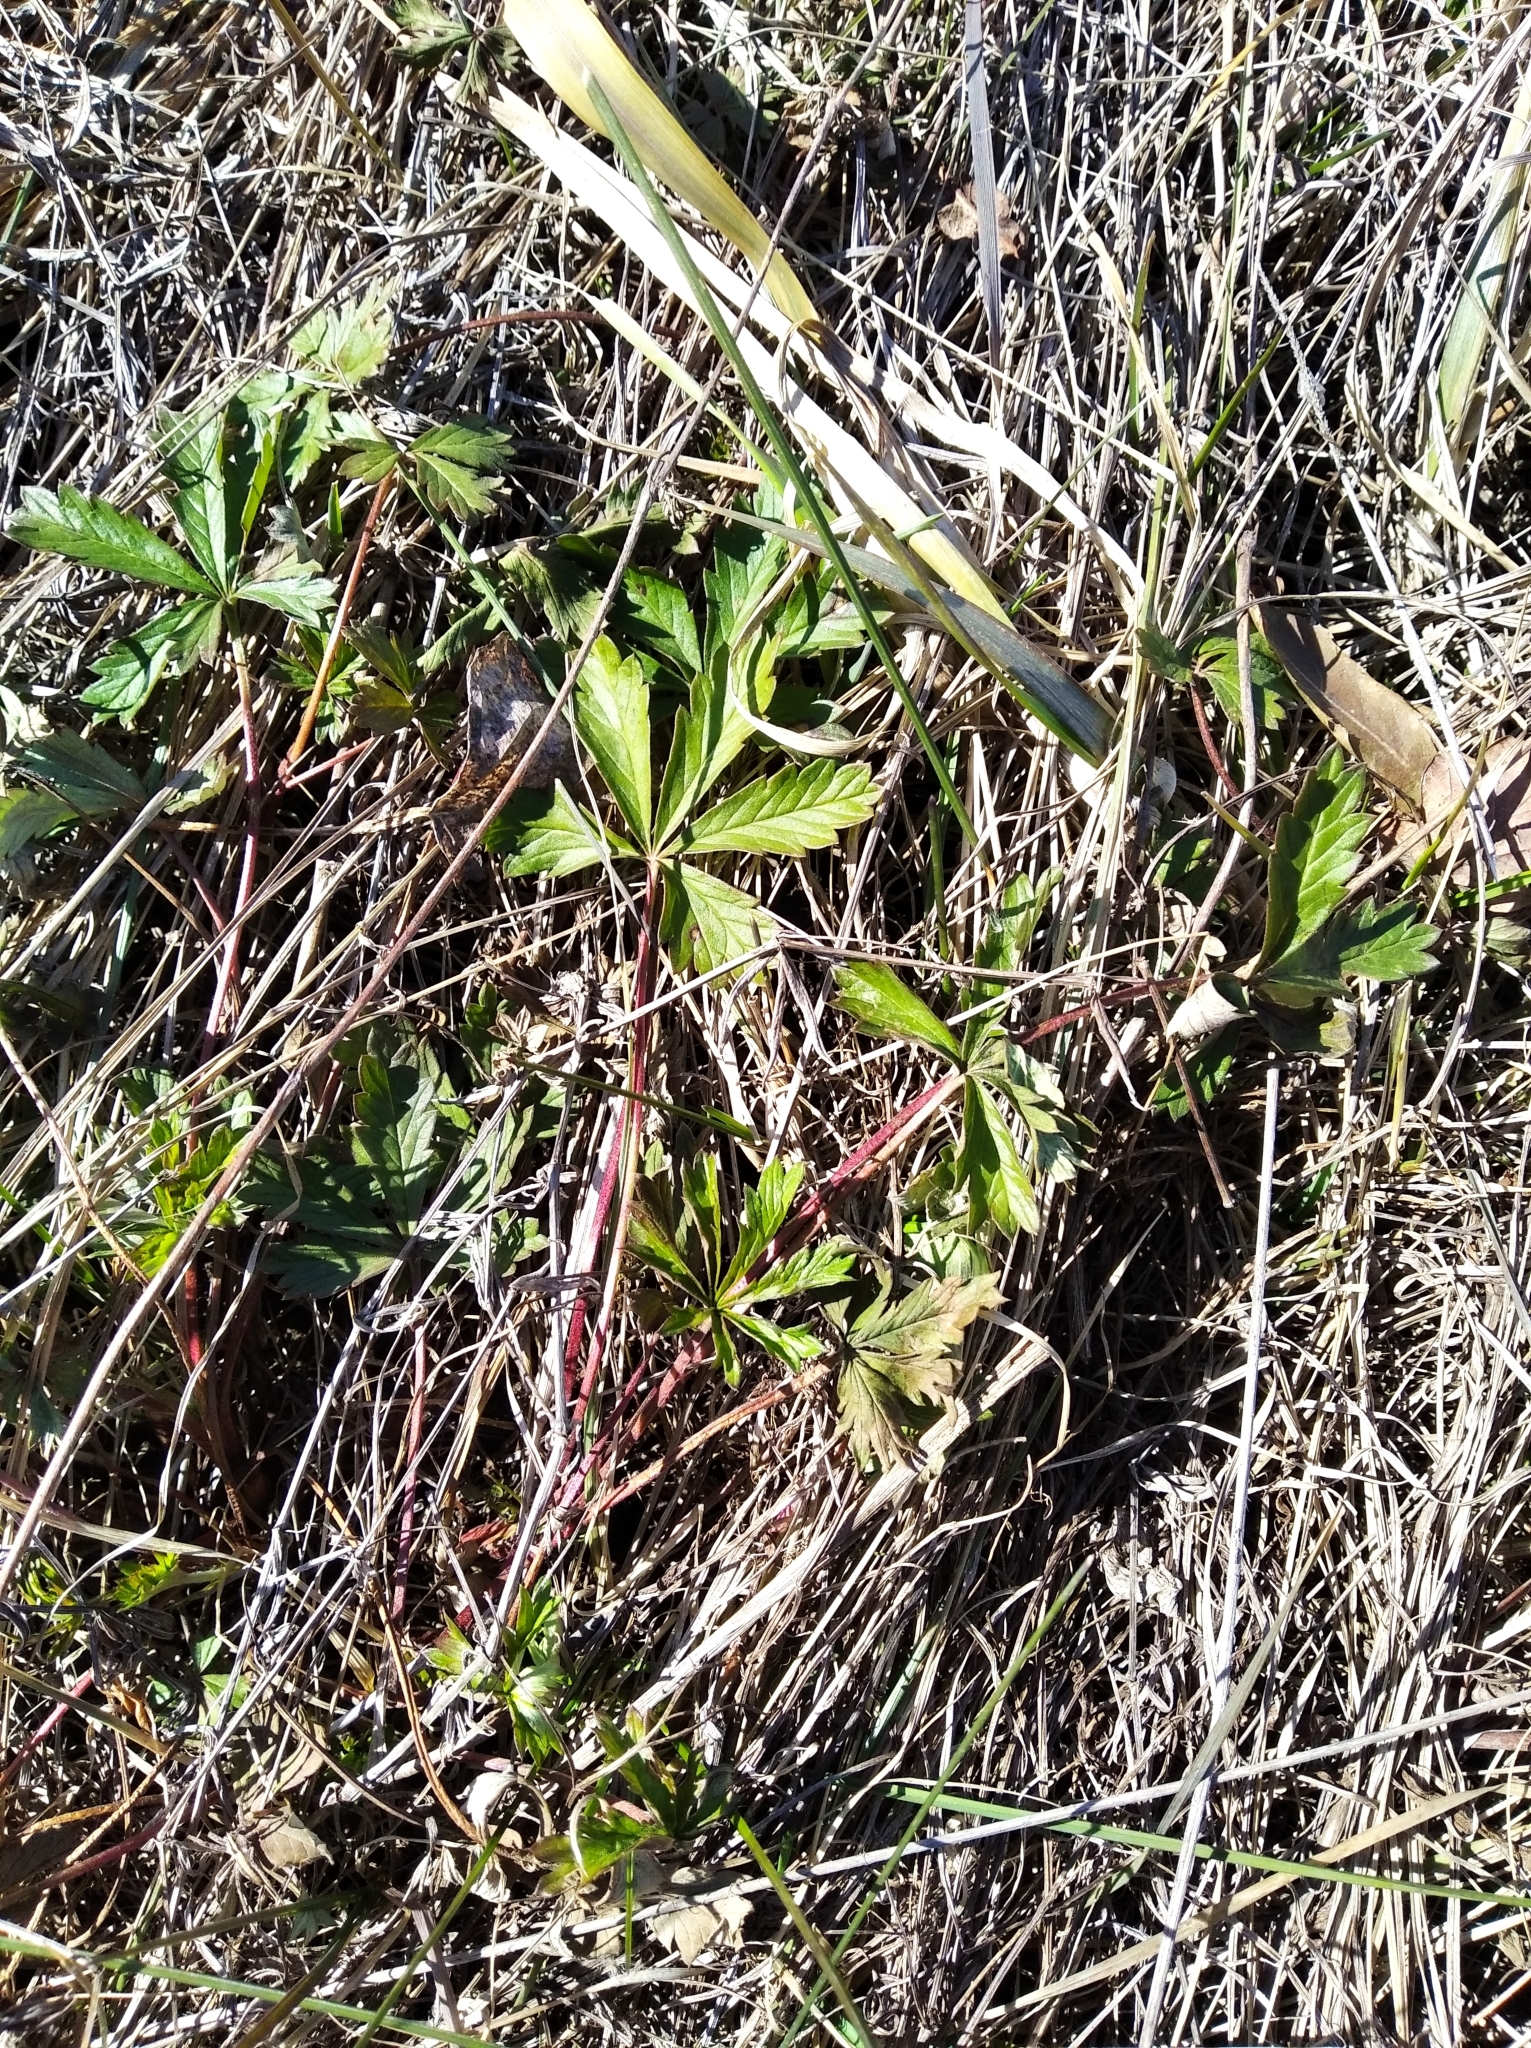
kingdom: Plantae
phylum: Tracheophyta
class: Magnoliopsida
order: Rosales
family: Rosaceae
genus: Potentilla
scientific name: Potentilla reptans
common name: Creeping cinquefoil
